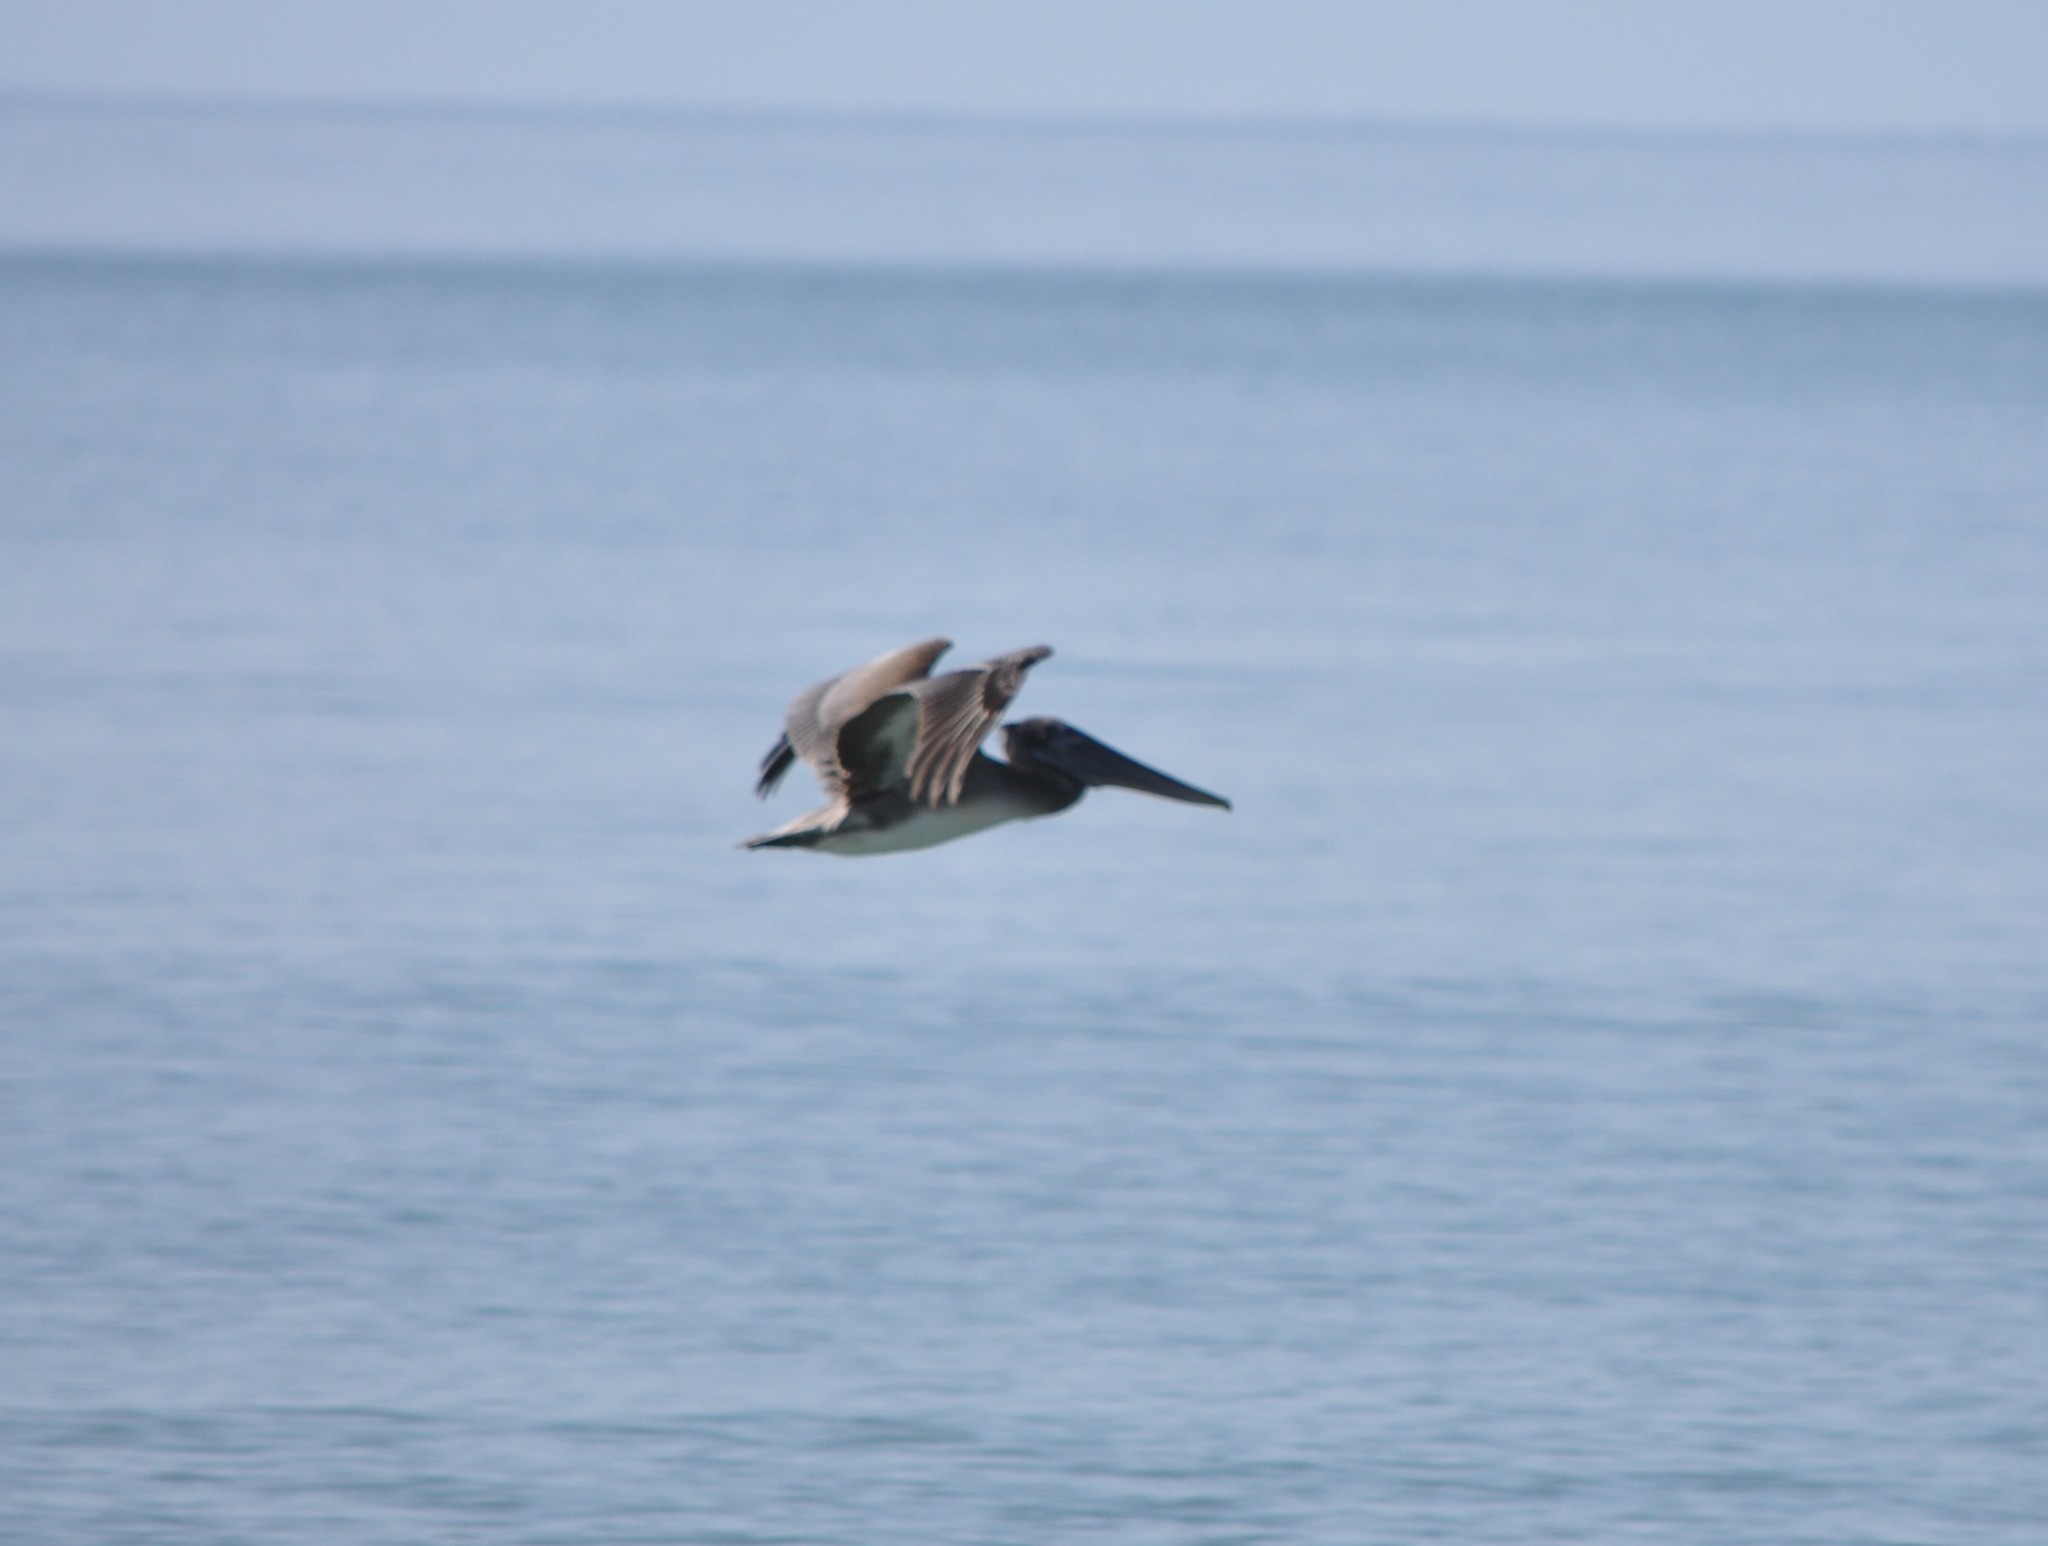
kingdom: Animalia
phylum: Chordata
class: Aves
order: Pelecaniformes
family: Pelecanidae
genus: Pelecanus
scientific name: Pelecanus occidentalis
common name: Brown pelican
